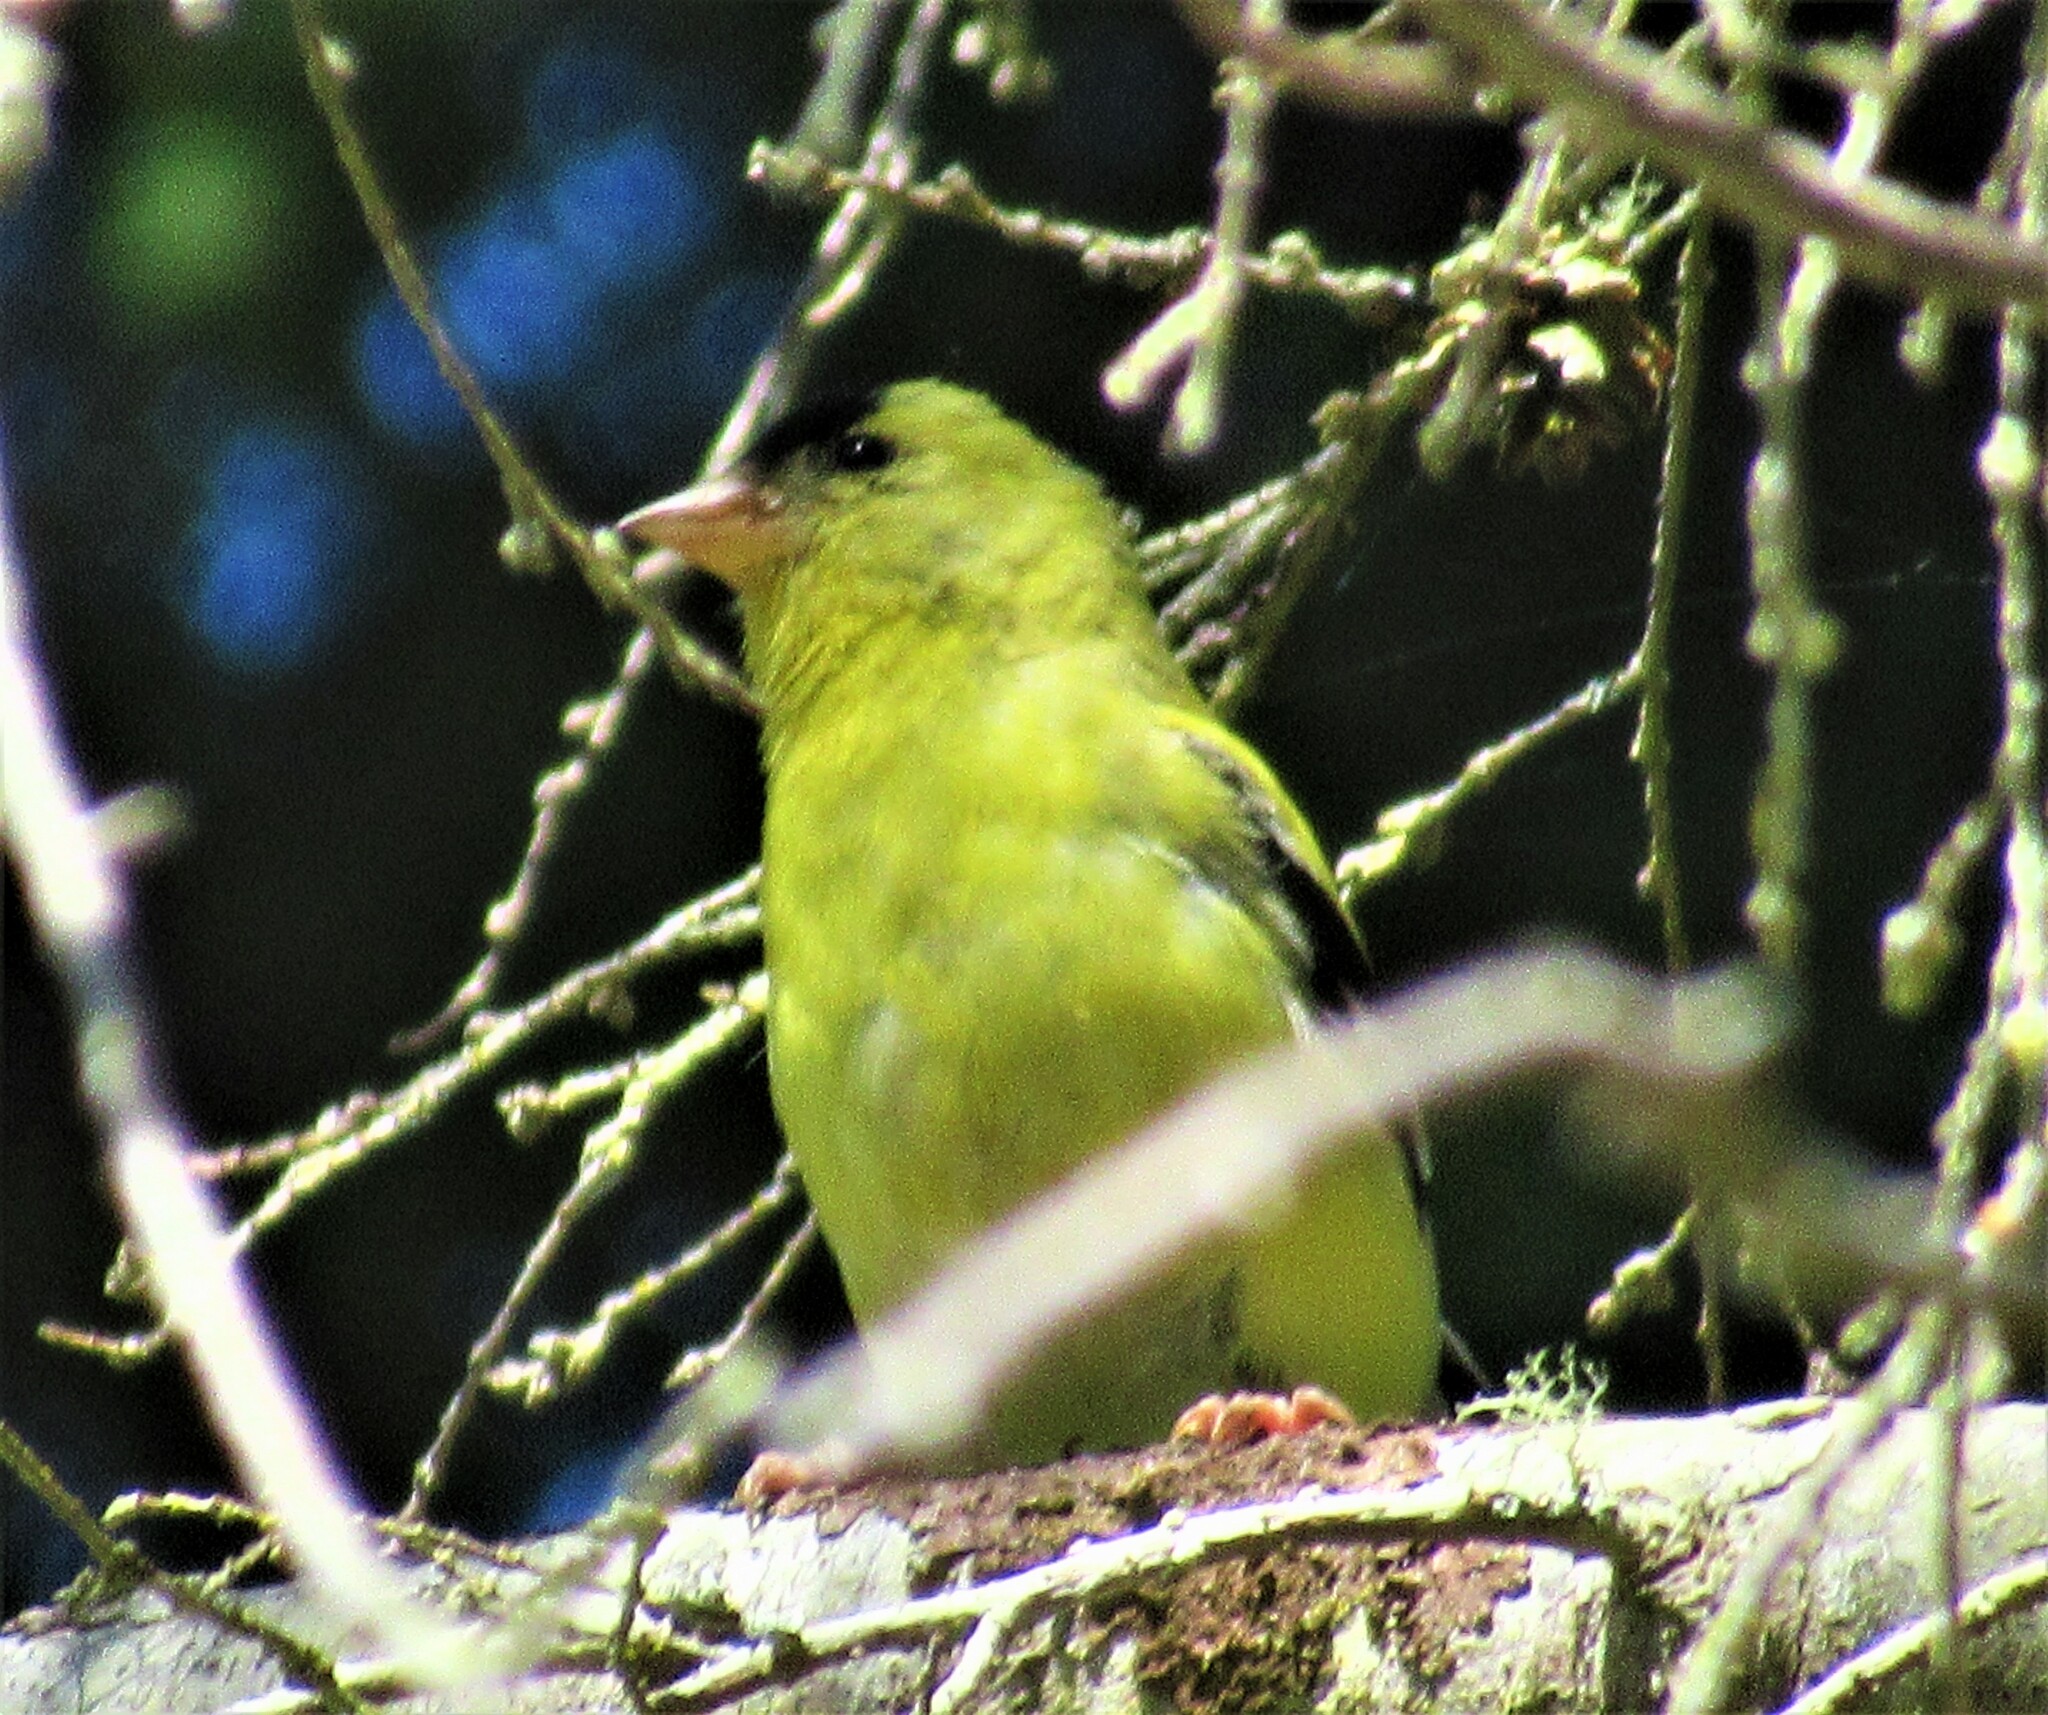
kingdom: Animalia
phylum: Chordata
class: Aves
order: Passeriformes
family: Fringillidae
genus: Spinus
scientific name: Spinus tristis
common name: American goldfinch
